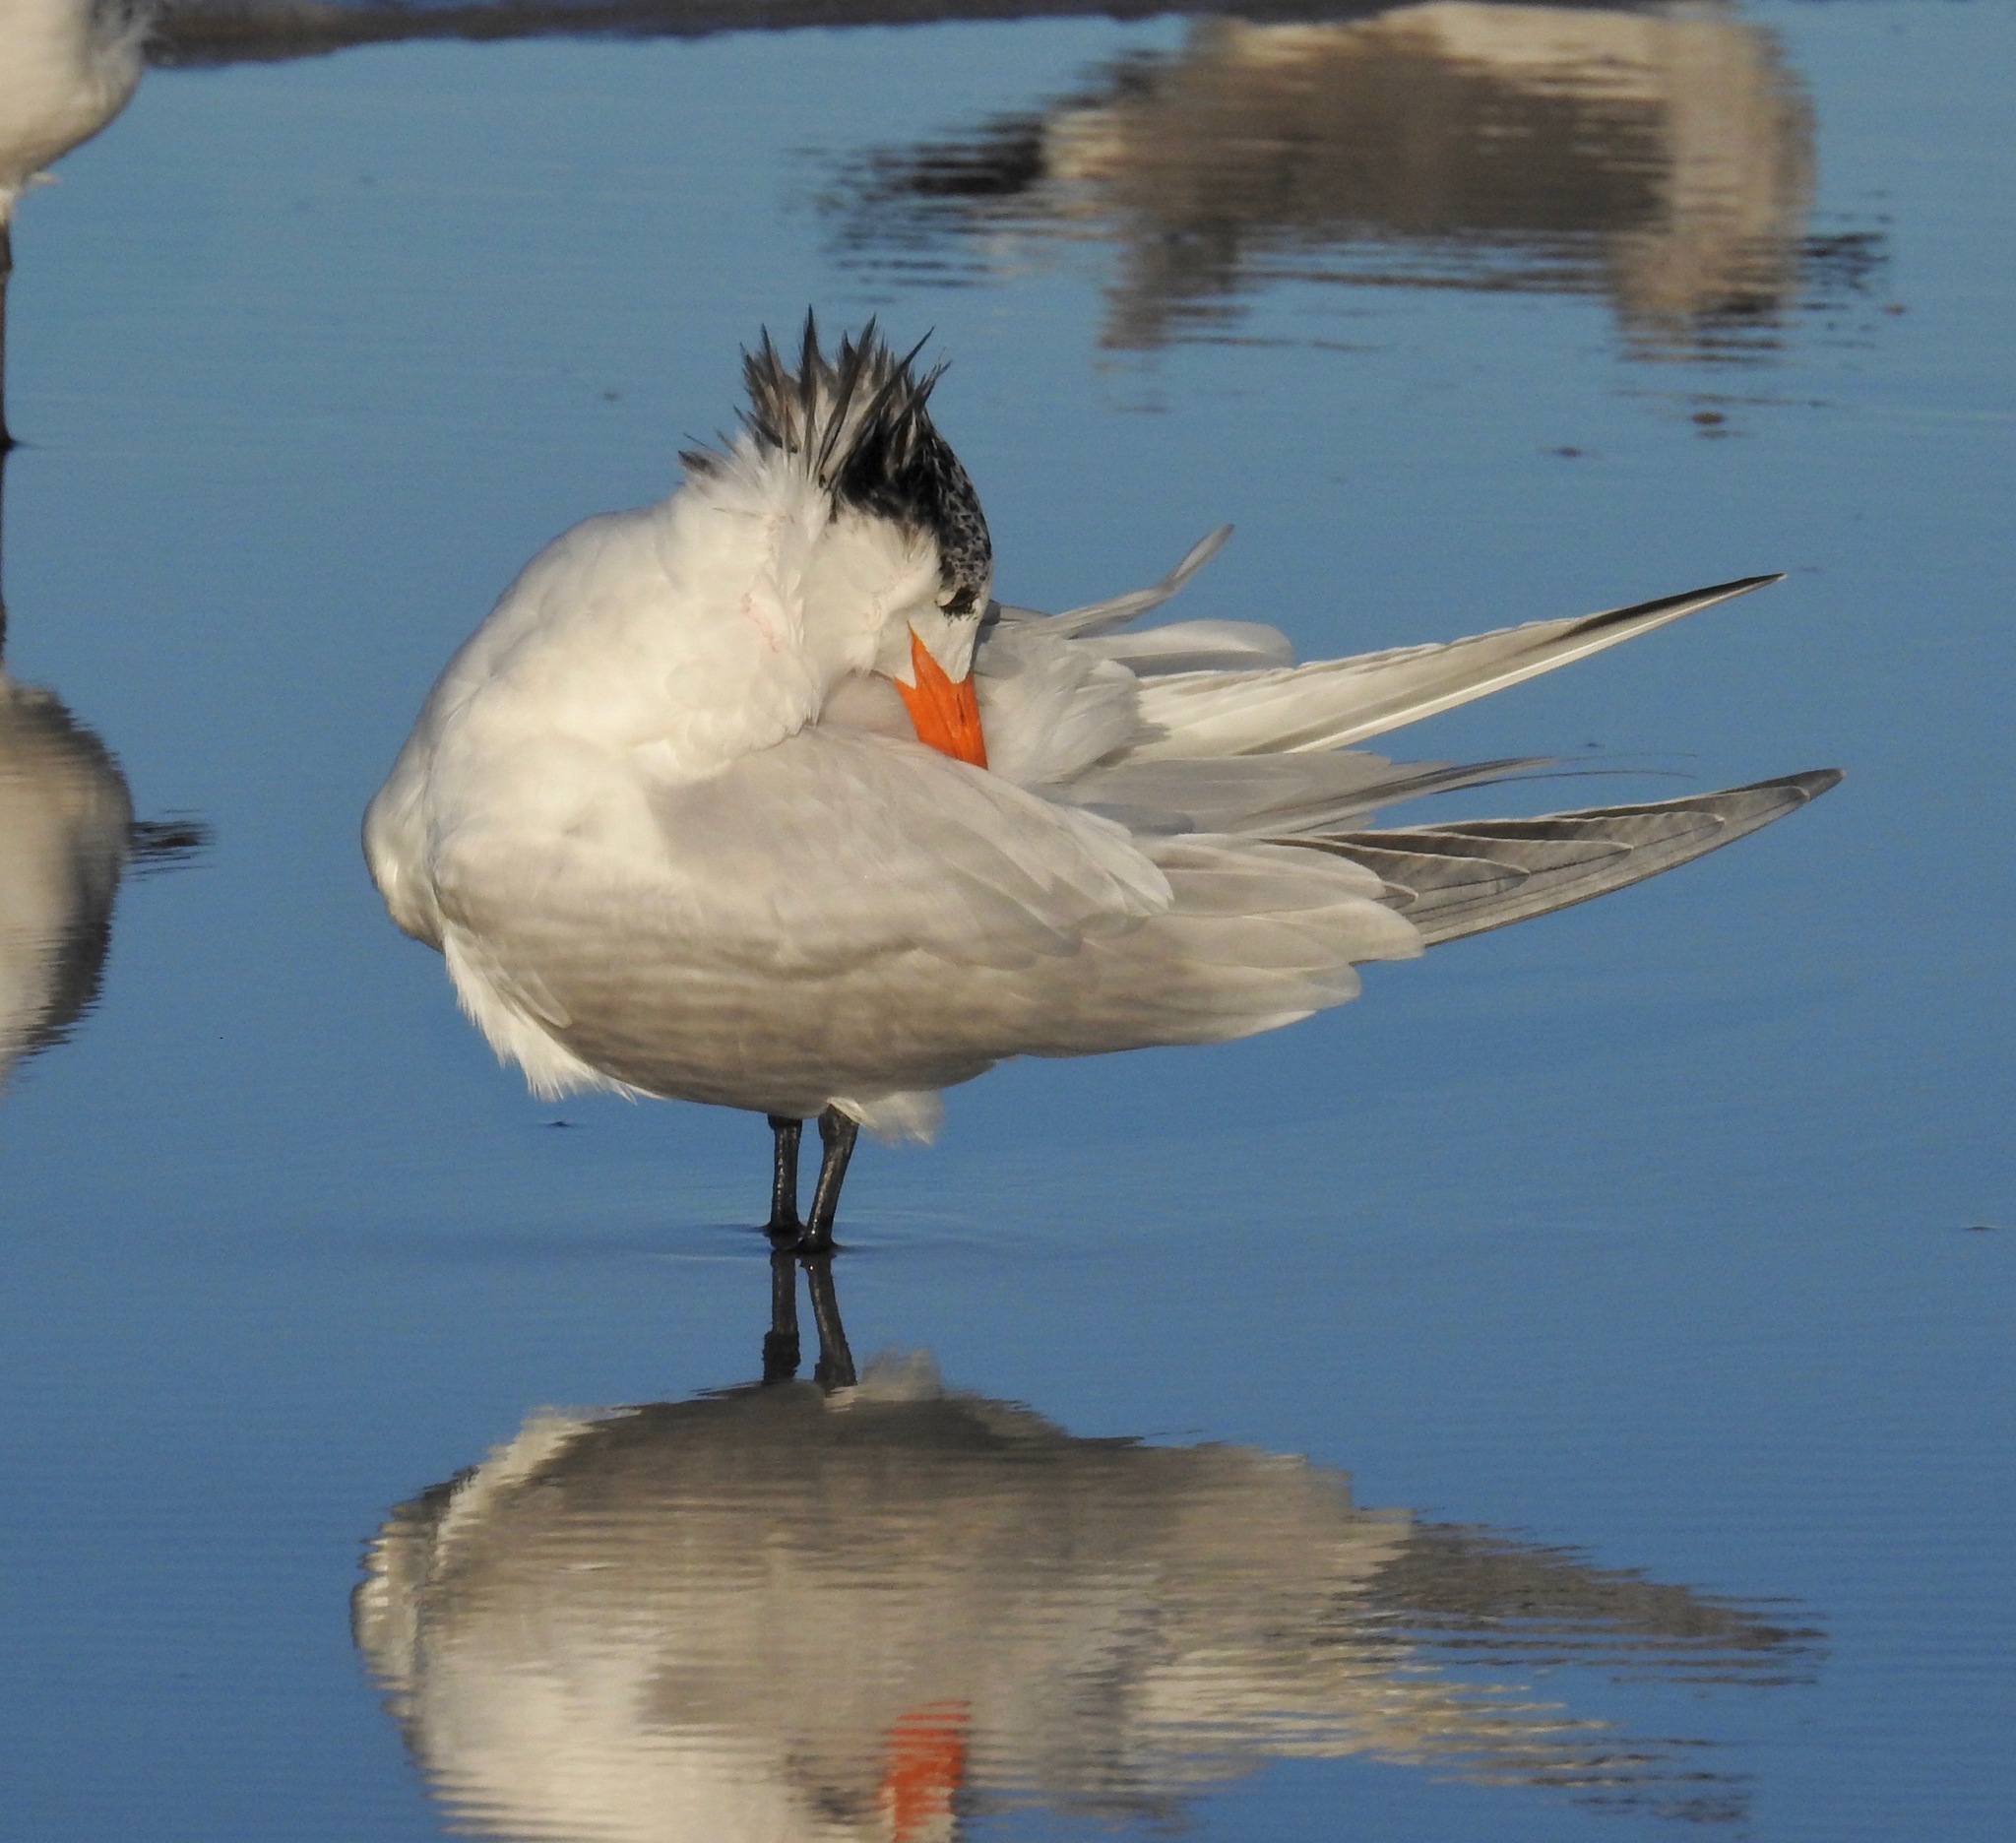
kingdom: Animalia
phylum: Chordata
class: Aves
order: Charadriiformes
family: Laridae
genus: Thalasseus
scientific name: Thalasseus maximus
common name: Royal tern
